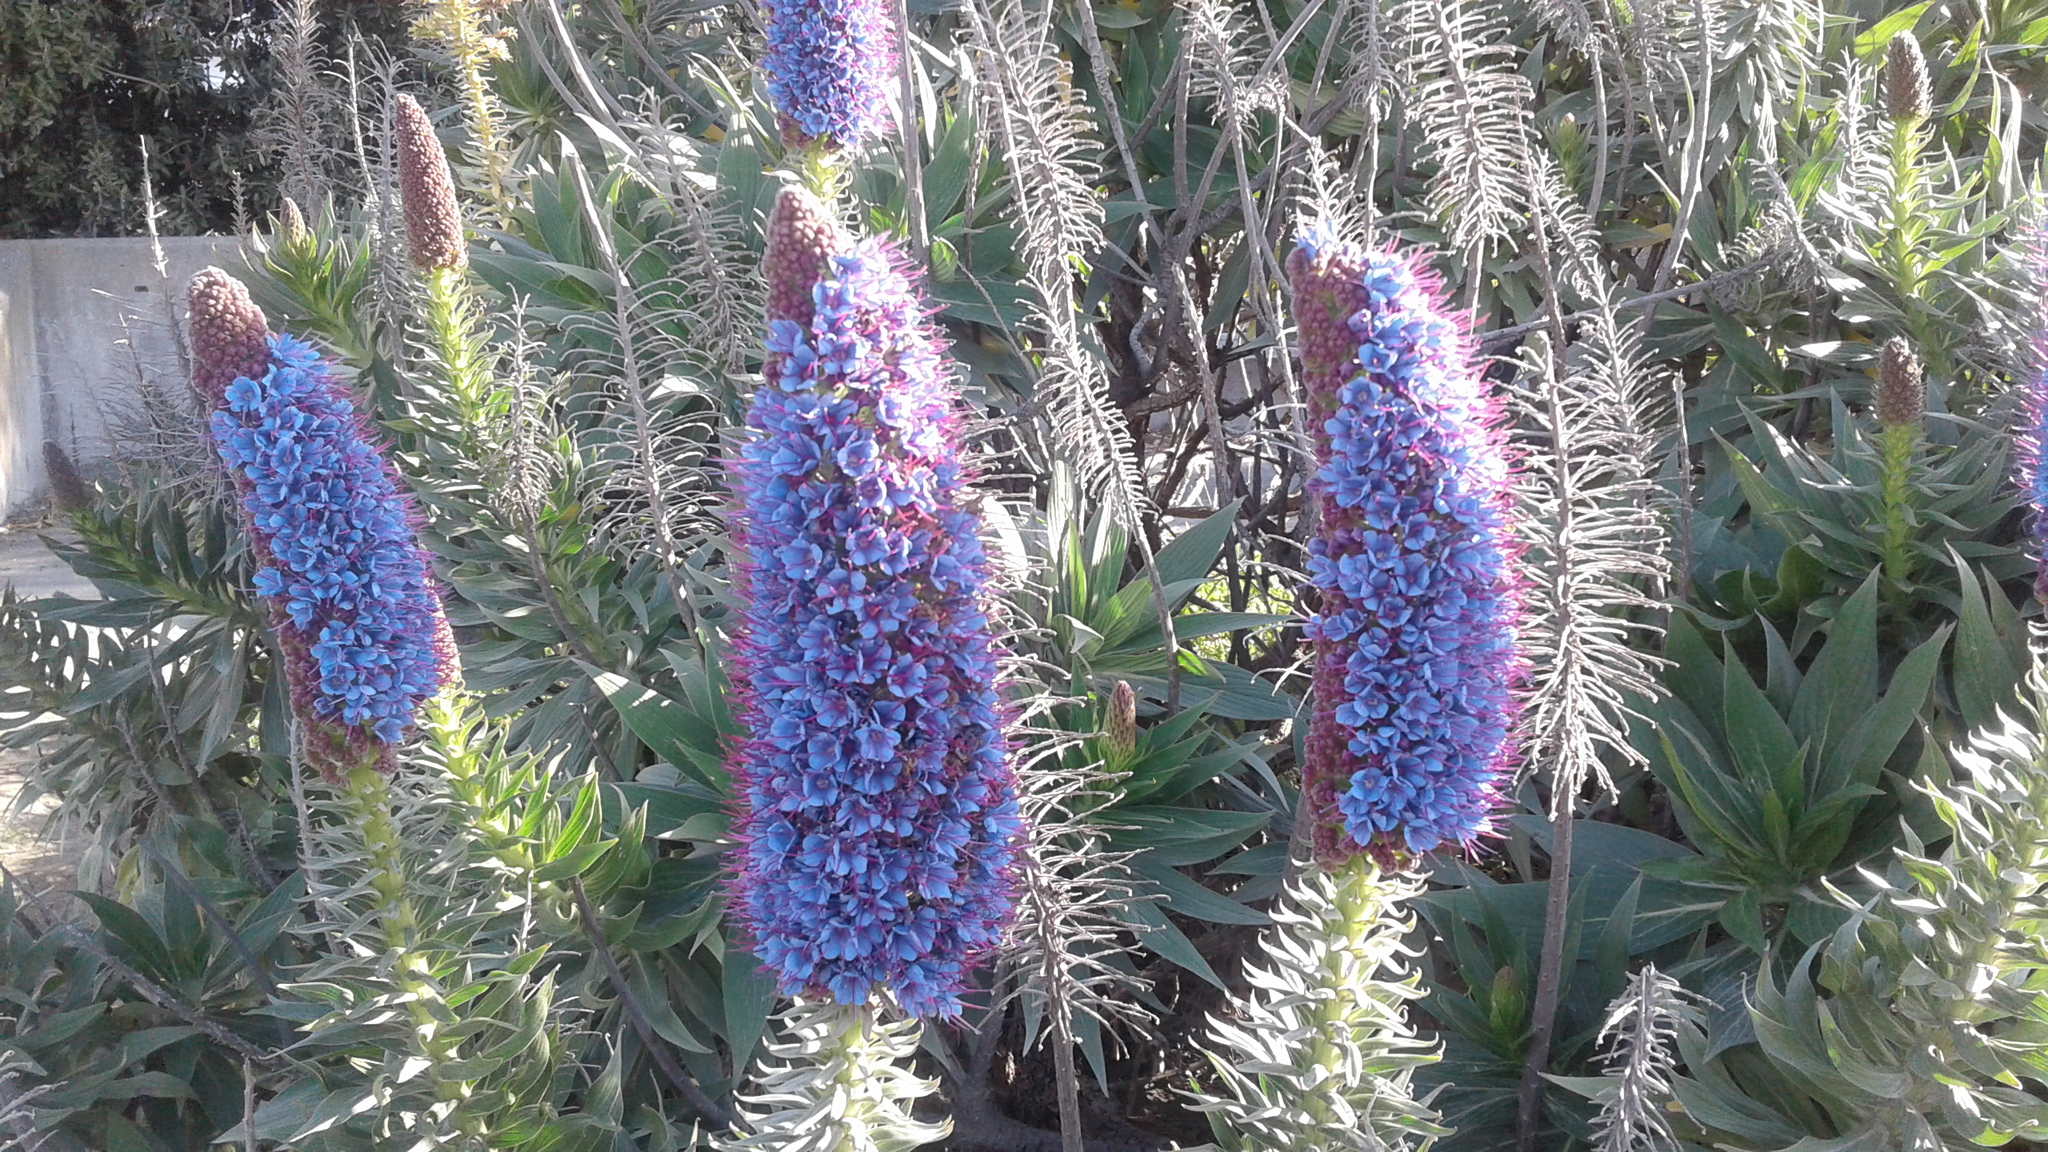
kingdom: Plantae
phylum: Tracheophyta
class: Magnoliopsida
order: Boraginales
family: Boraginaceae
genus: Echium
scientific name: Echium candicans
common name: Pride of madeira
